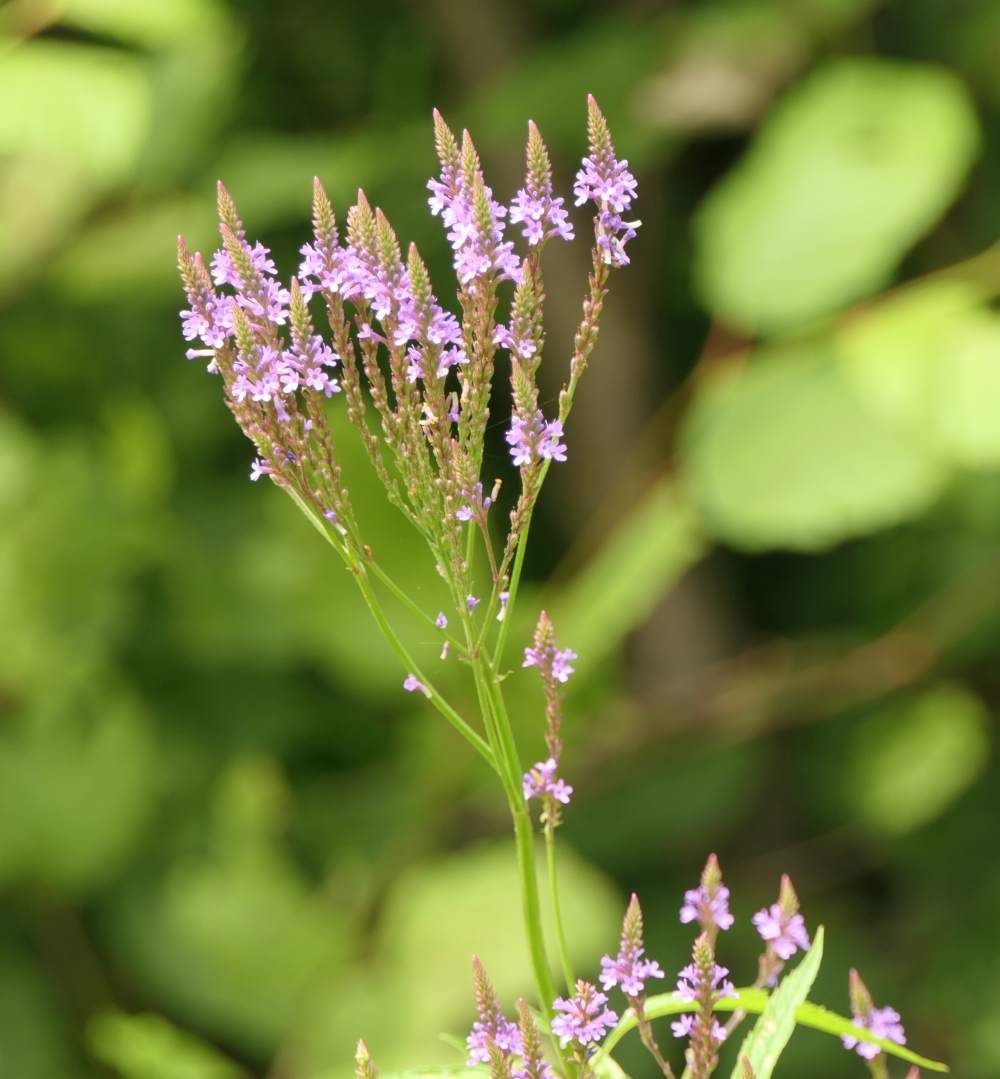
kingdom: Plantae
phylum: Tracheophyta
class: Magnoliopsida
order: Lamiales
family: Verbenaceae
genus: Verbena
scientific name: Verbena hastata
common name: American blue vervain
